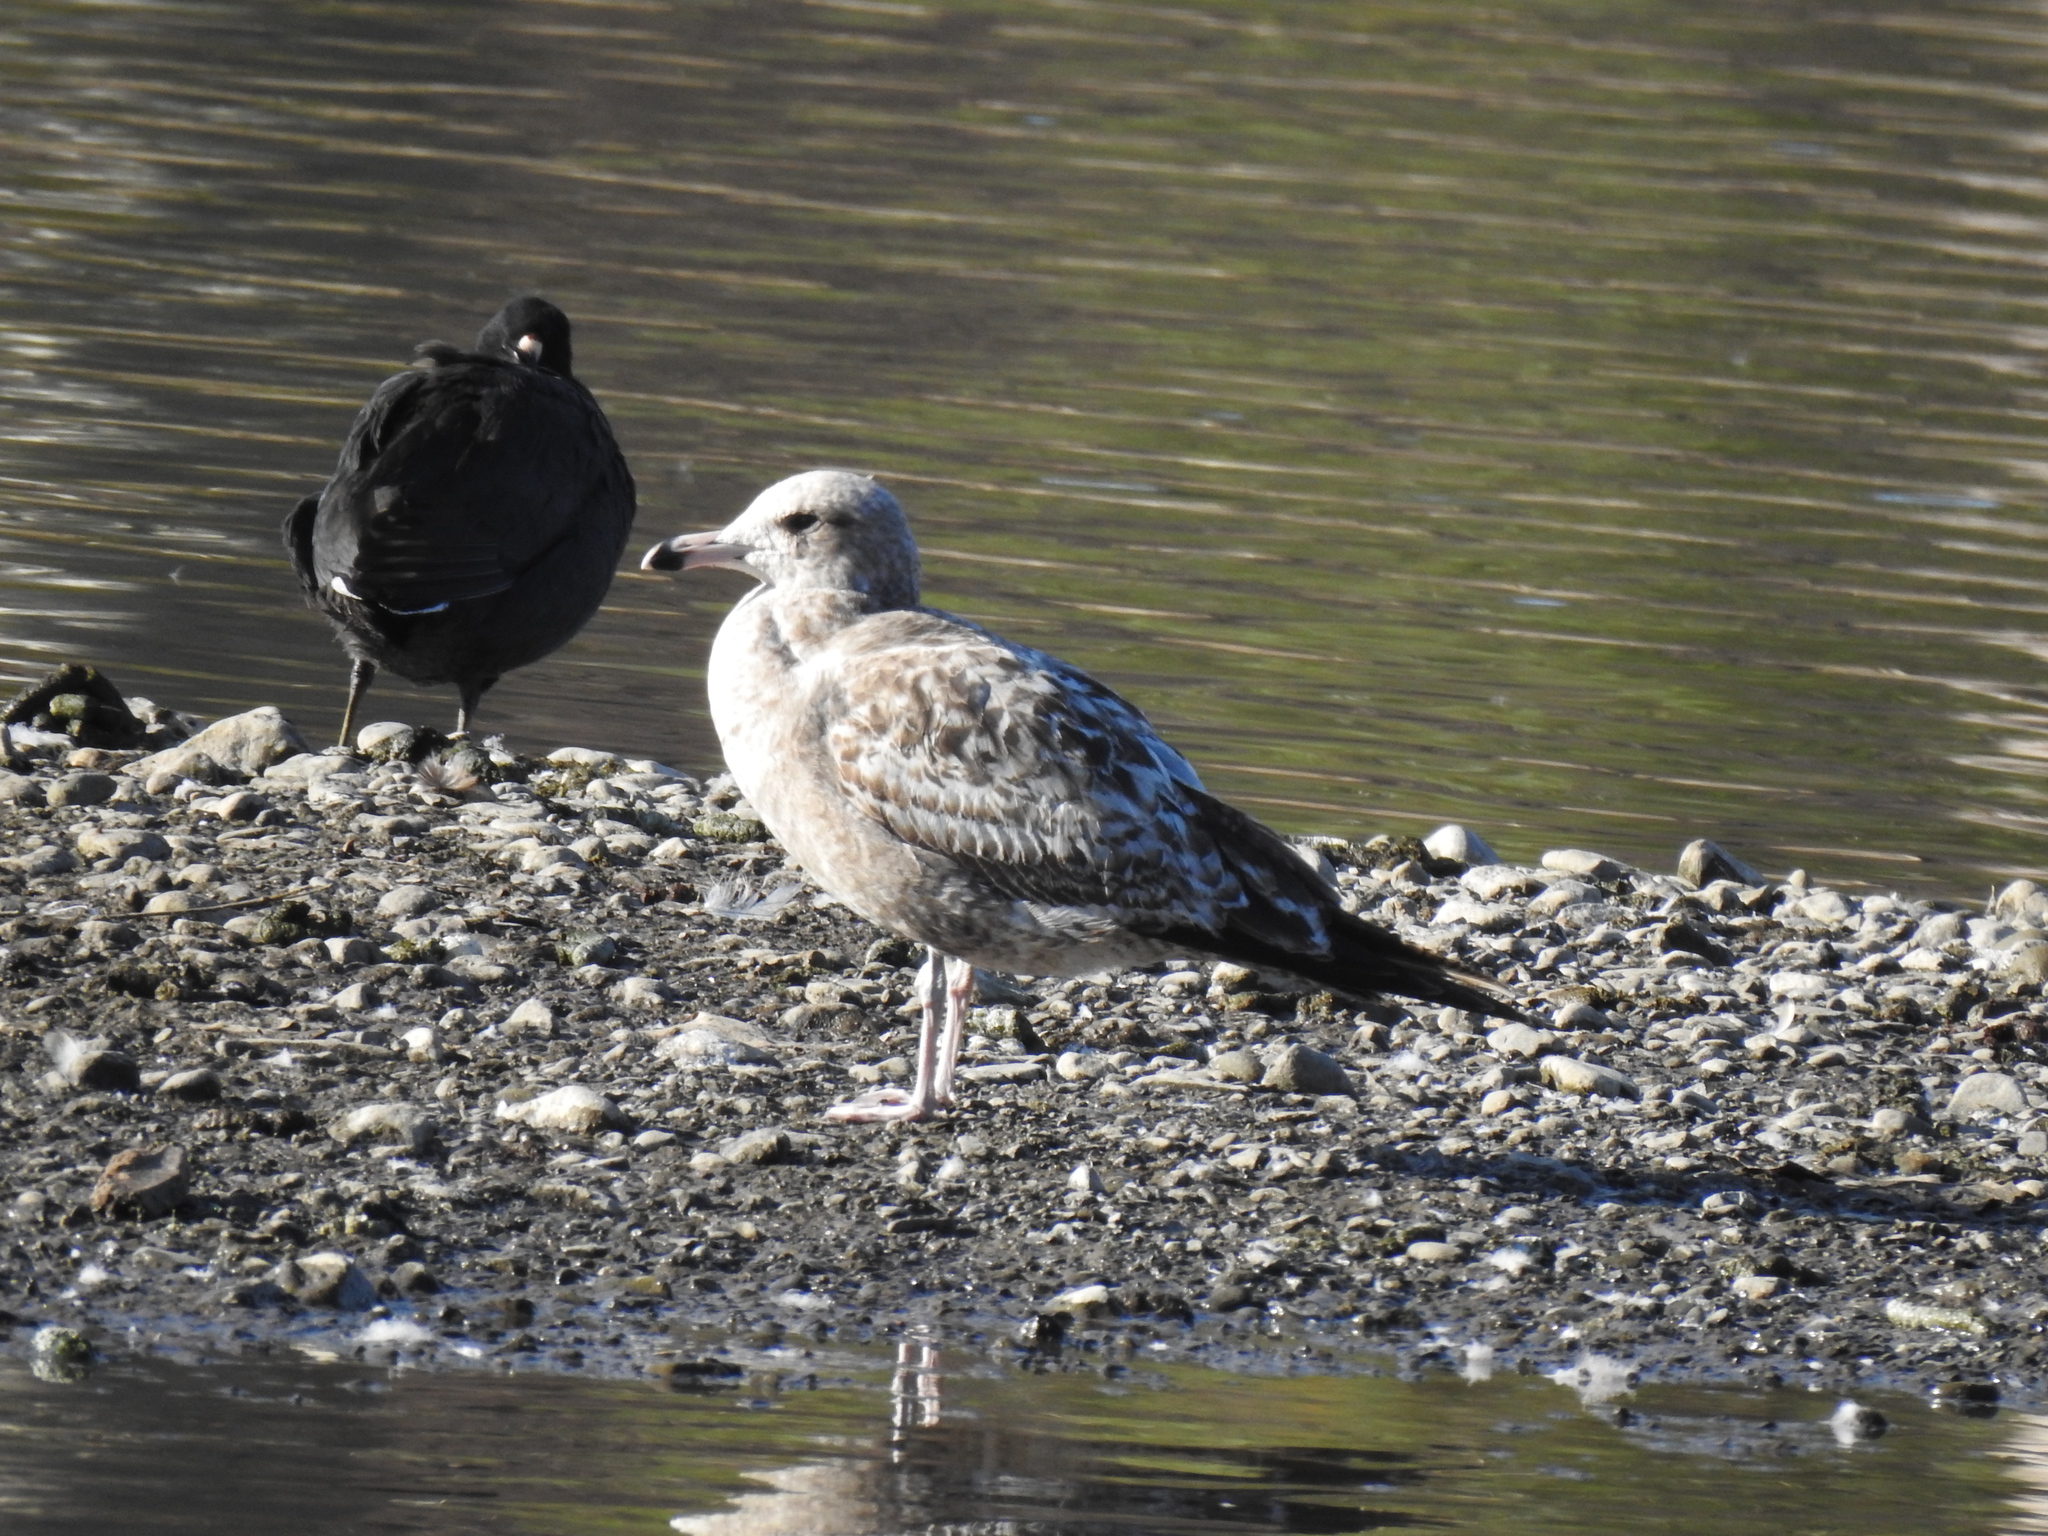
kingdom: Animalia
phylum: Chordata
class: Aves
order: Charadriiformes
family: Laridae
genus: Larus
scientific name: Larus californicus
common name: California gull
